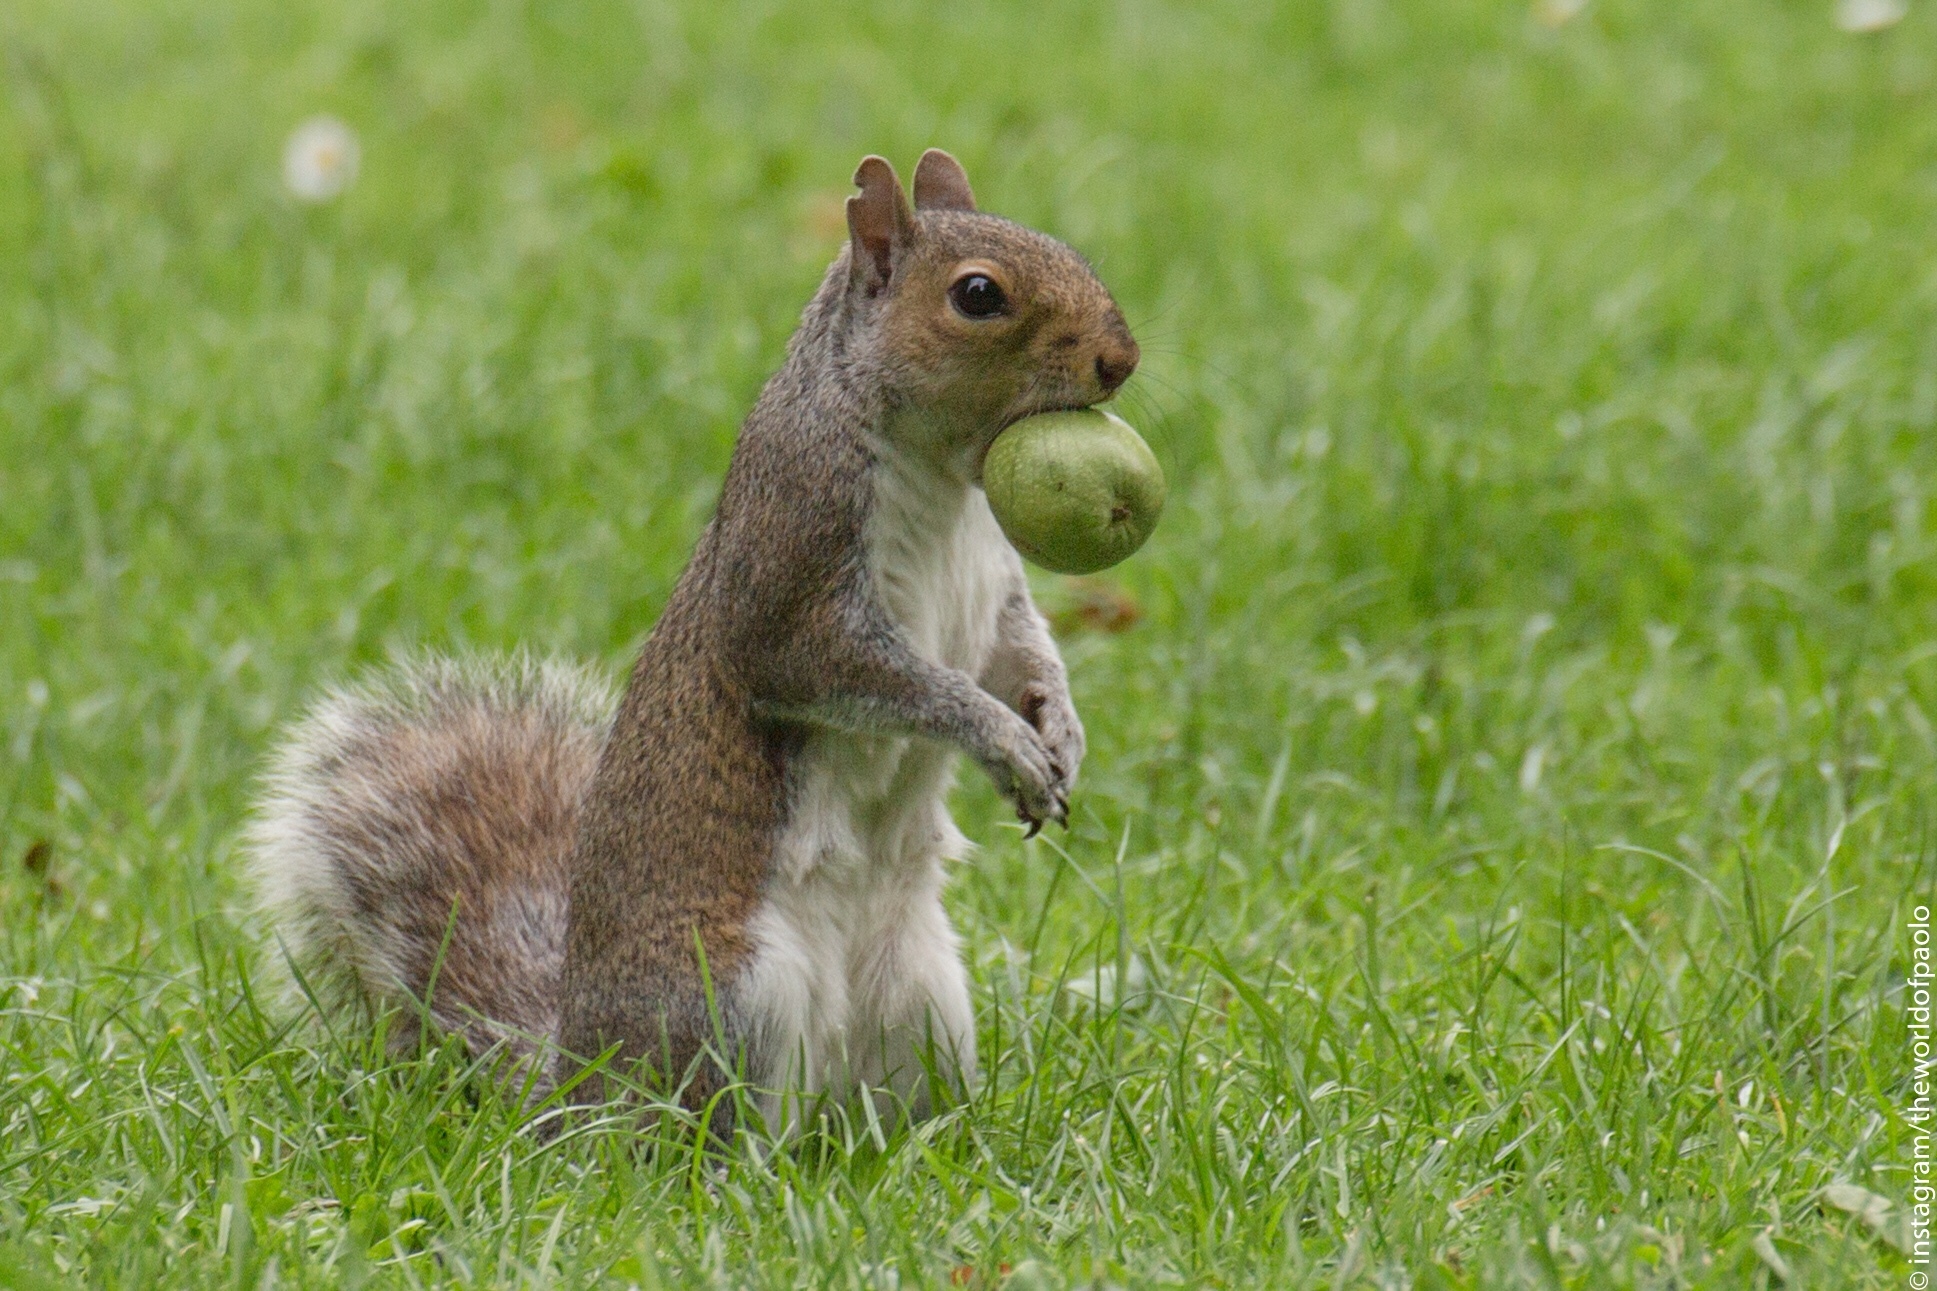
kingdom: Animalia
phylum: Chordata
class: Mammalia
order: Rodentia
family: Sciuridae
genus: Sciurus
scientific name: Sciurus carolinensis
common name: Eastern gray squirrel
